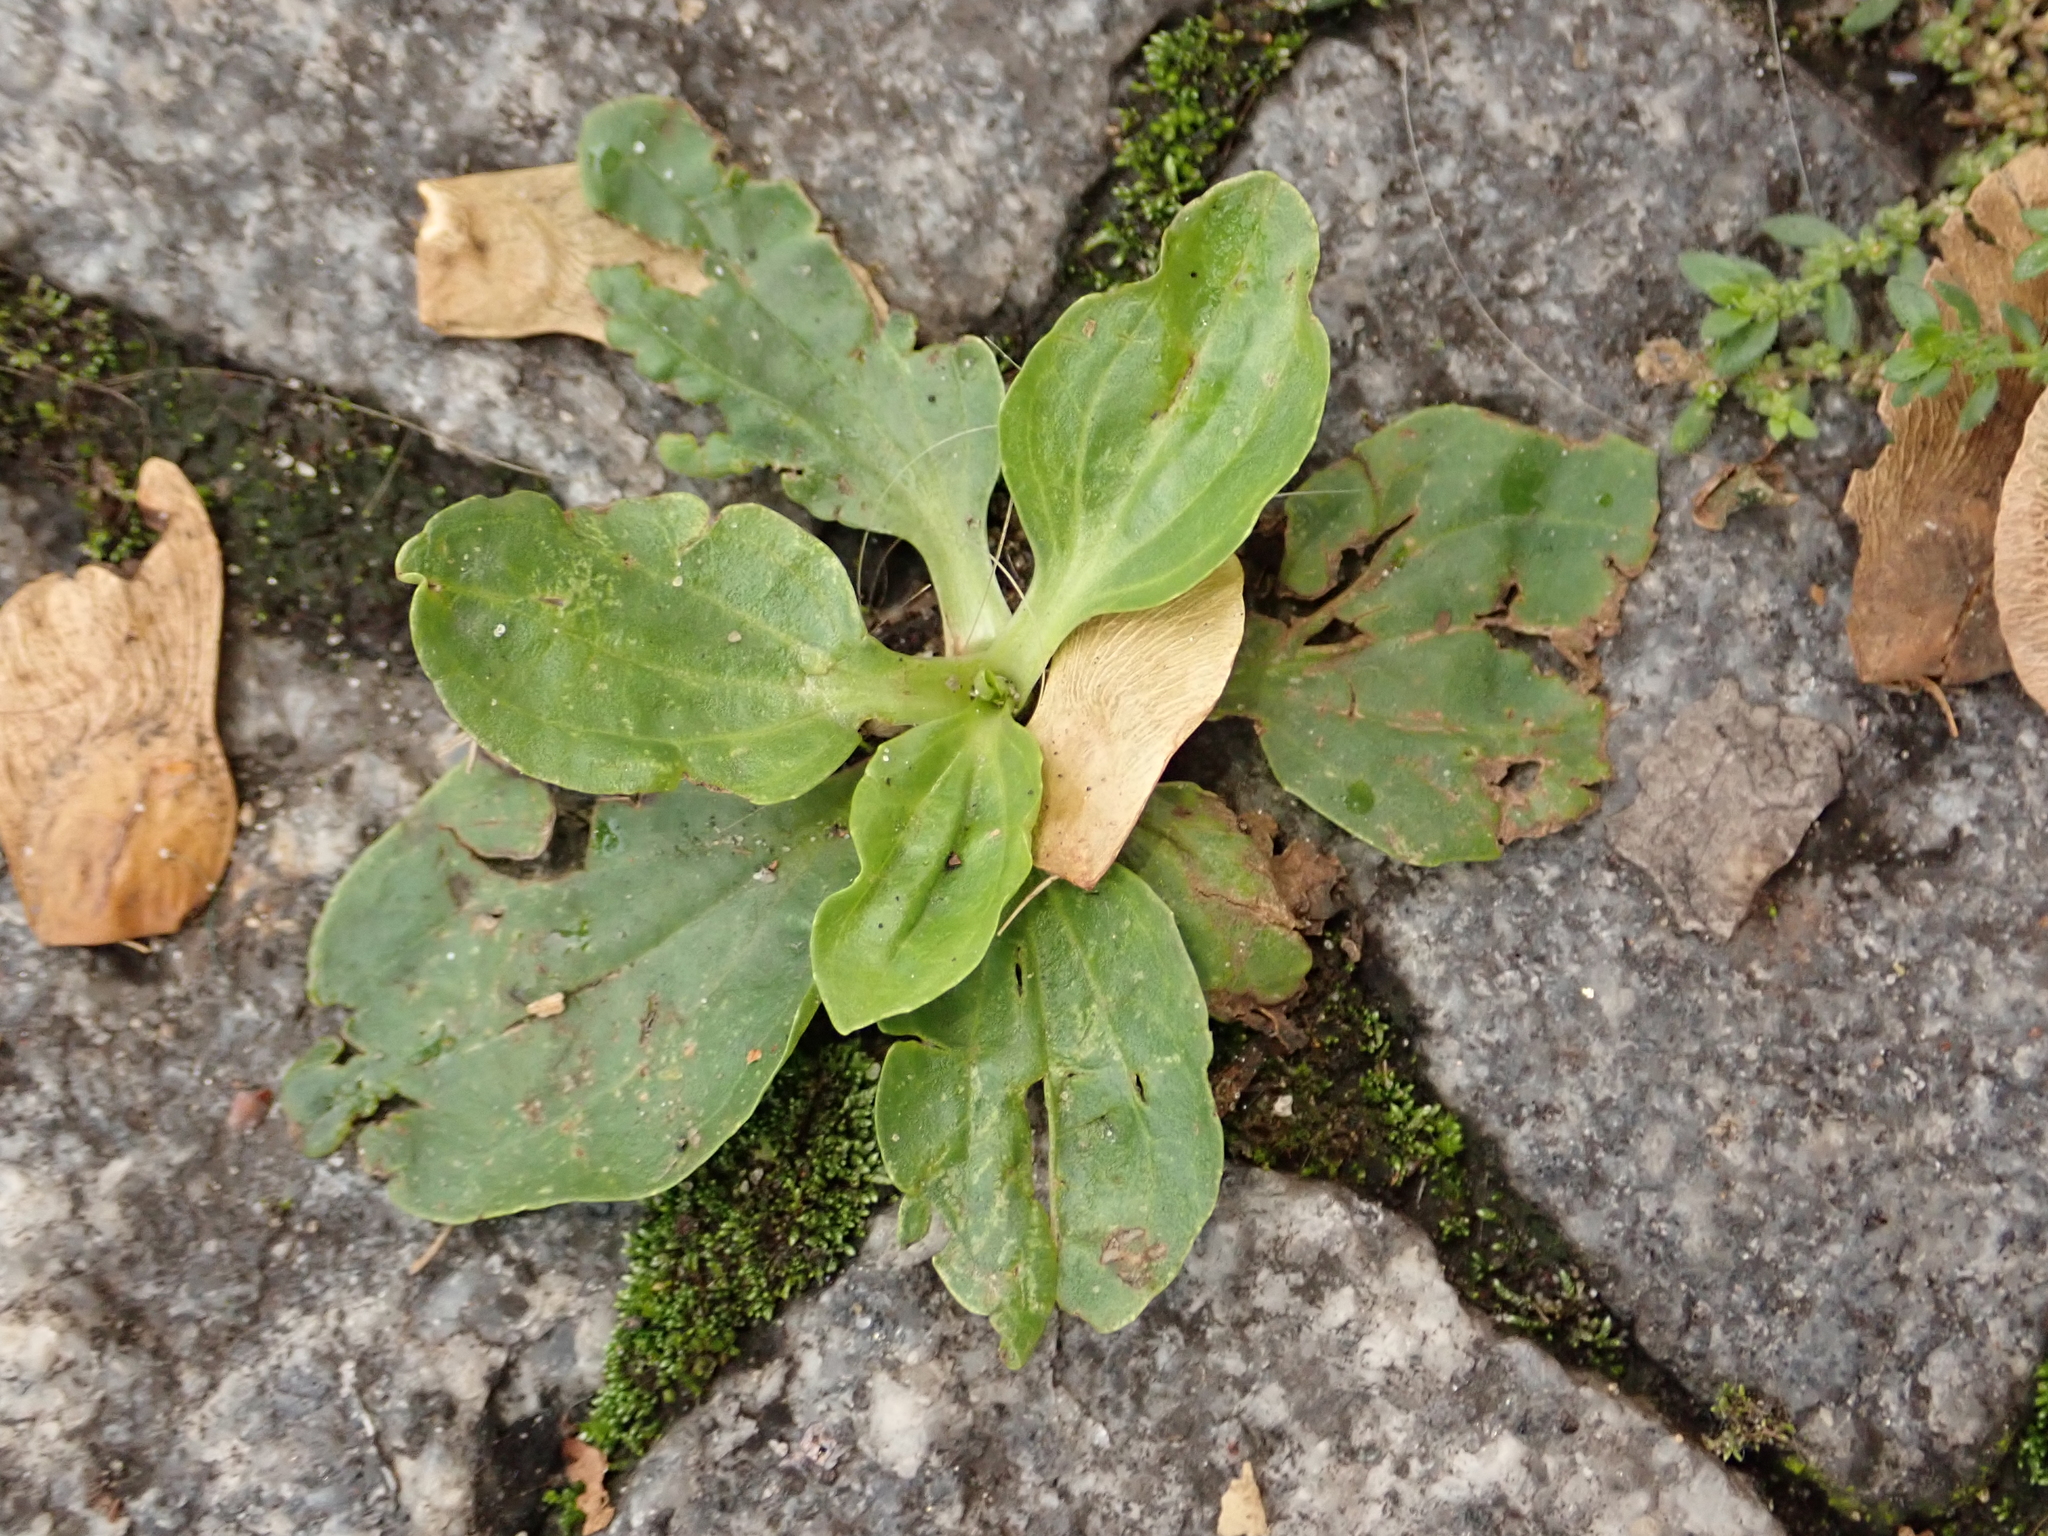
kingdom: Plantae
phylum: Tracheophyta
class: Magnoliopsida
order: Lamiales
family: Plantaginaceae
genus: Plantago
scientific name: Plantago major
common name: Common plantain
